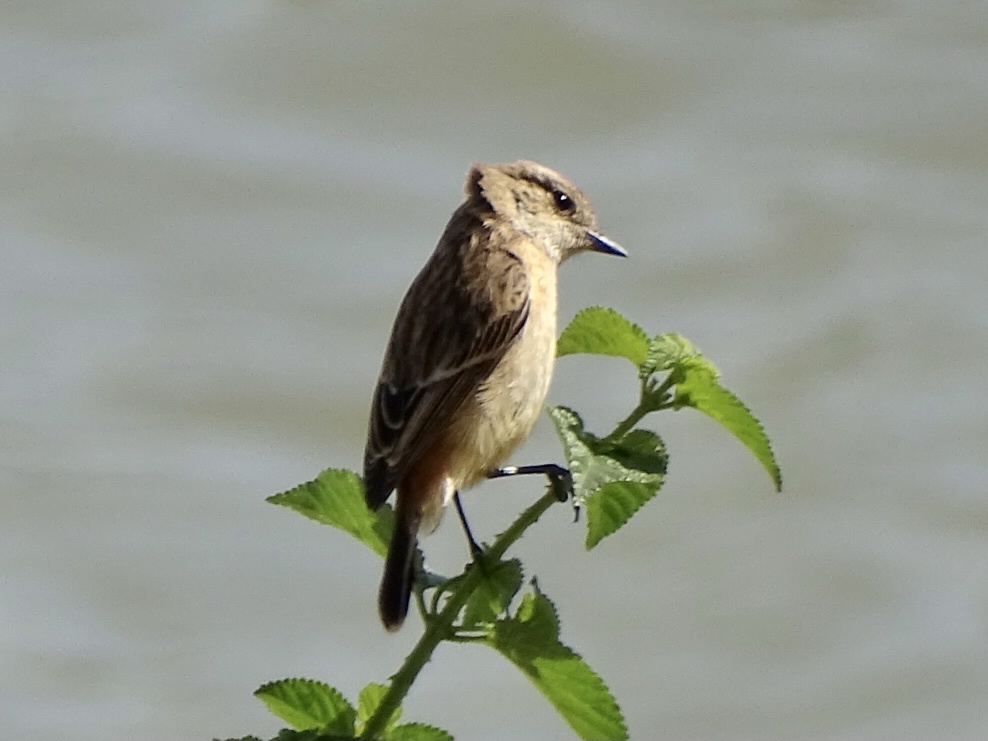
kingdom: Animalia
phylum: Chordata
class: Aves
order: Passeriformes
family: Muscicapidae
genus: Saxicola
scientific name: Saxicola stejnegeri
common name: Stejneger's stonechat
